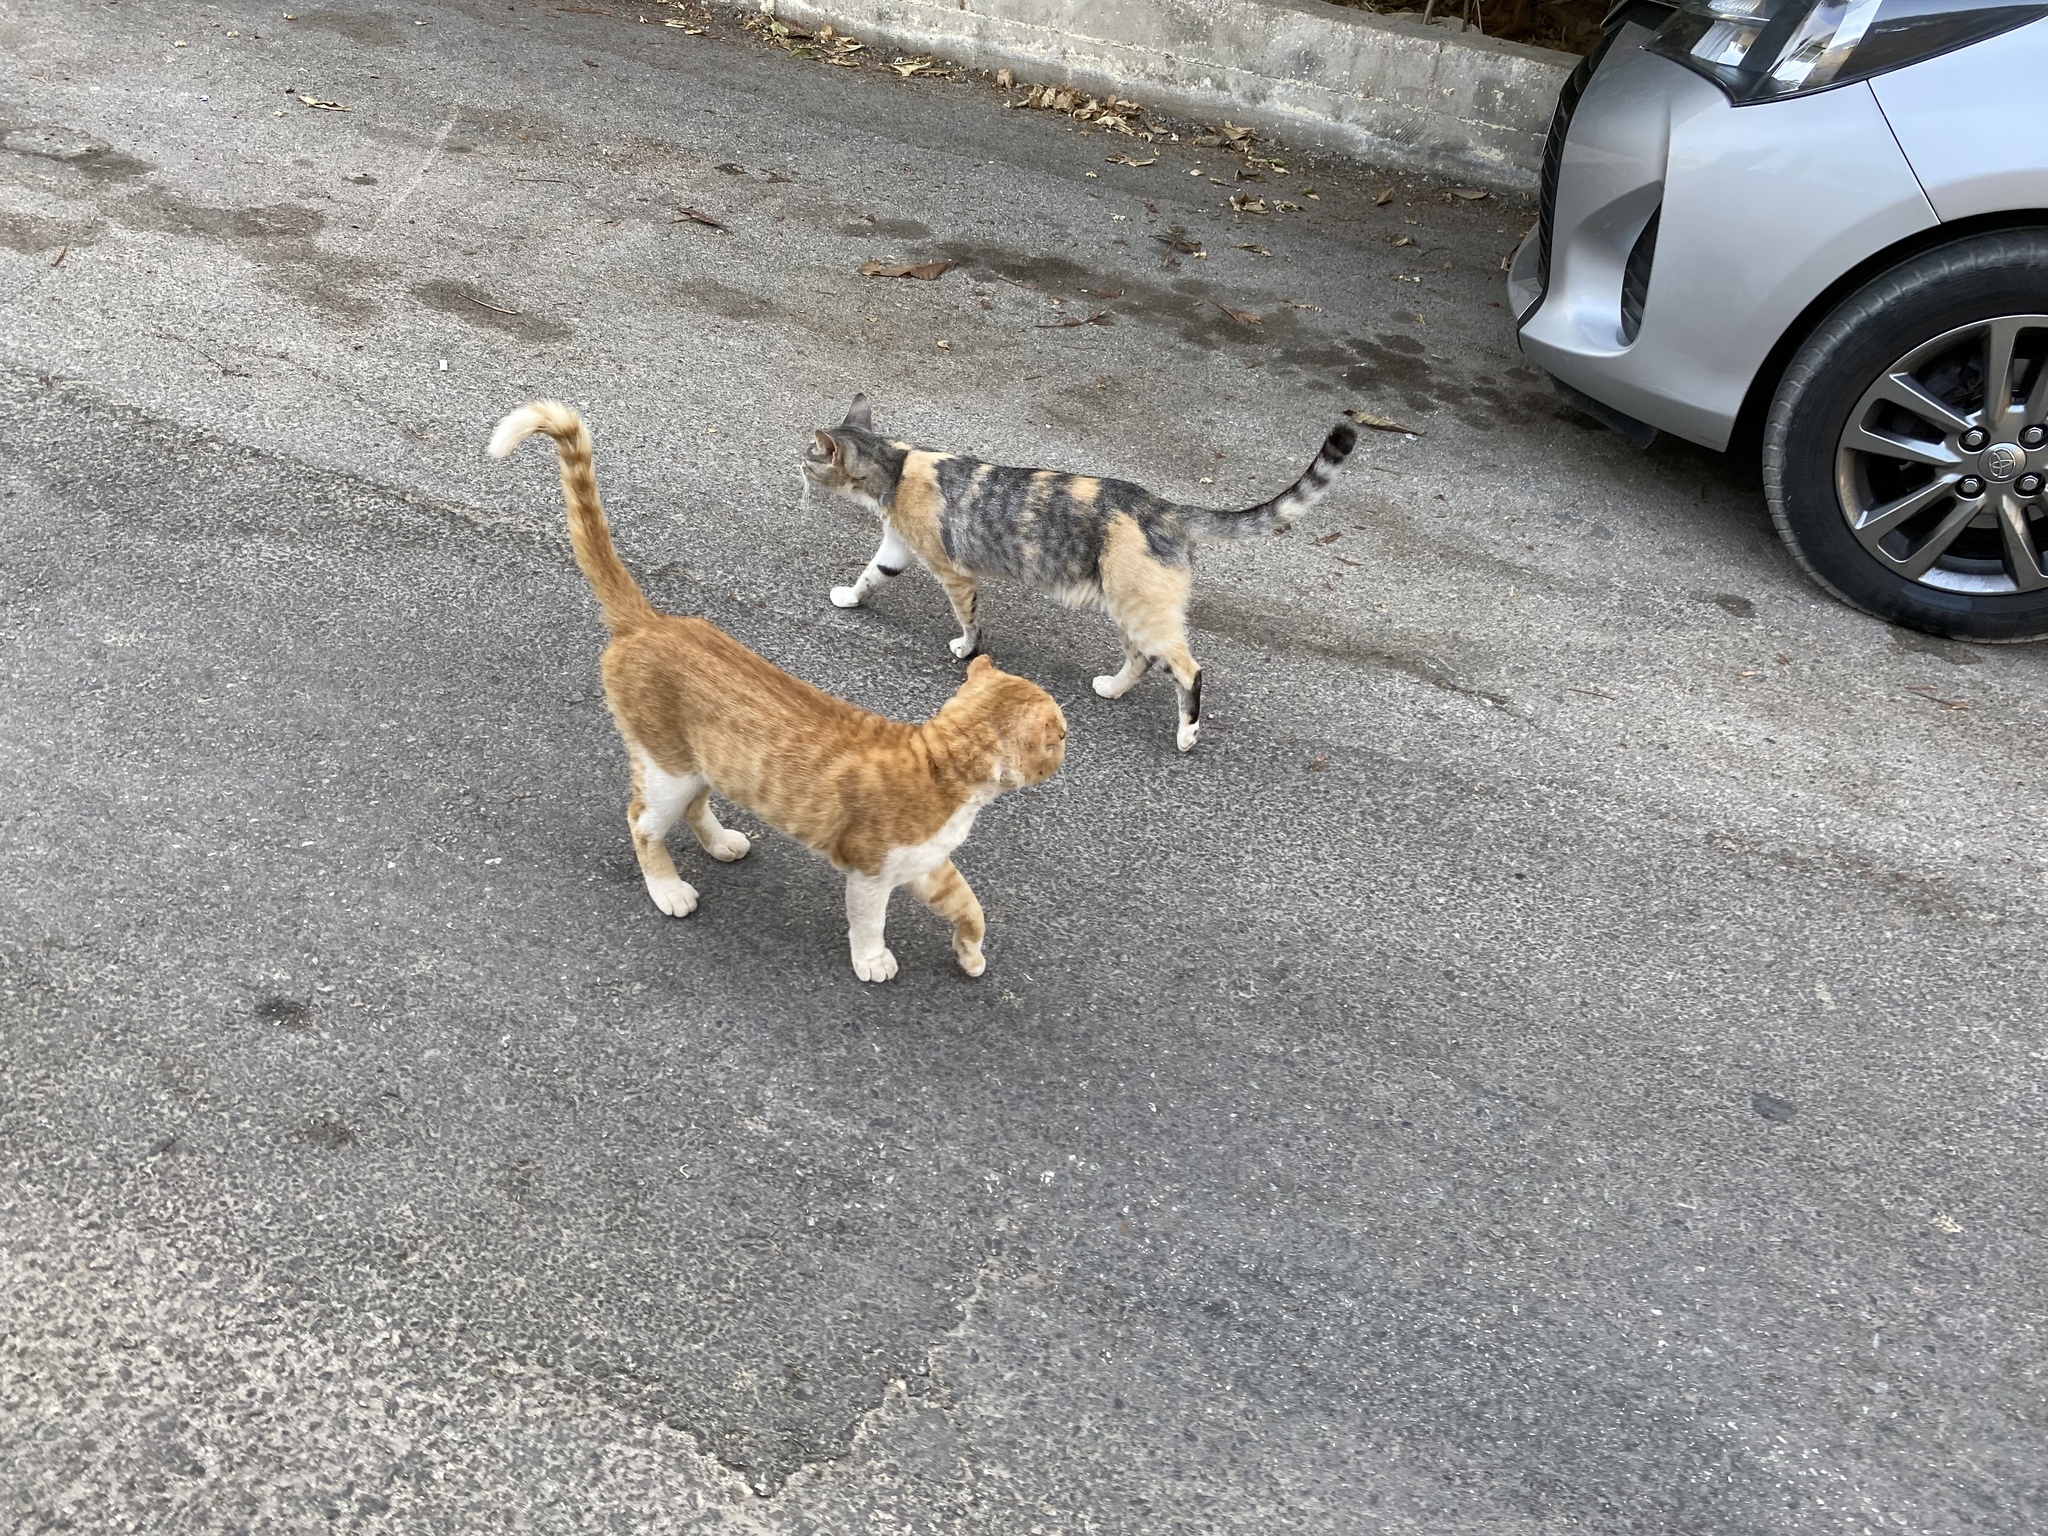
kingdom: Animalia
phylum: Chordata
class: Mammalia
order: Carnivora
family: Felidae
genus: Felis
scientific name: Felis catus
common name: Domestic cat
